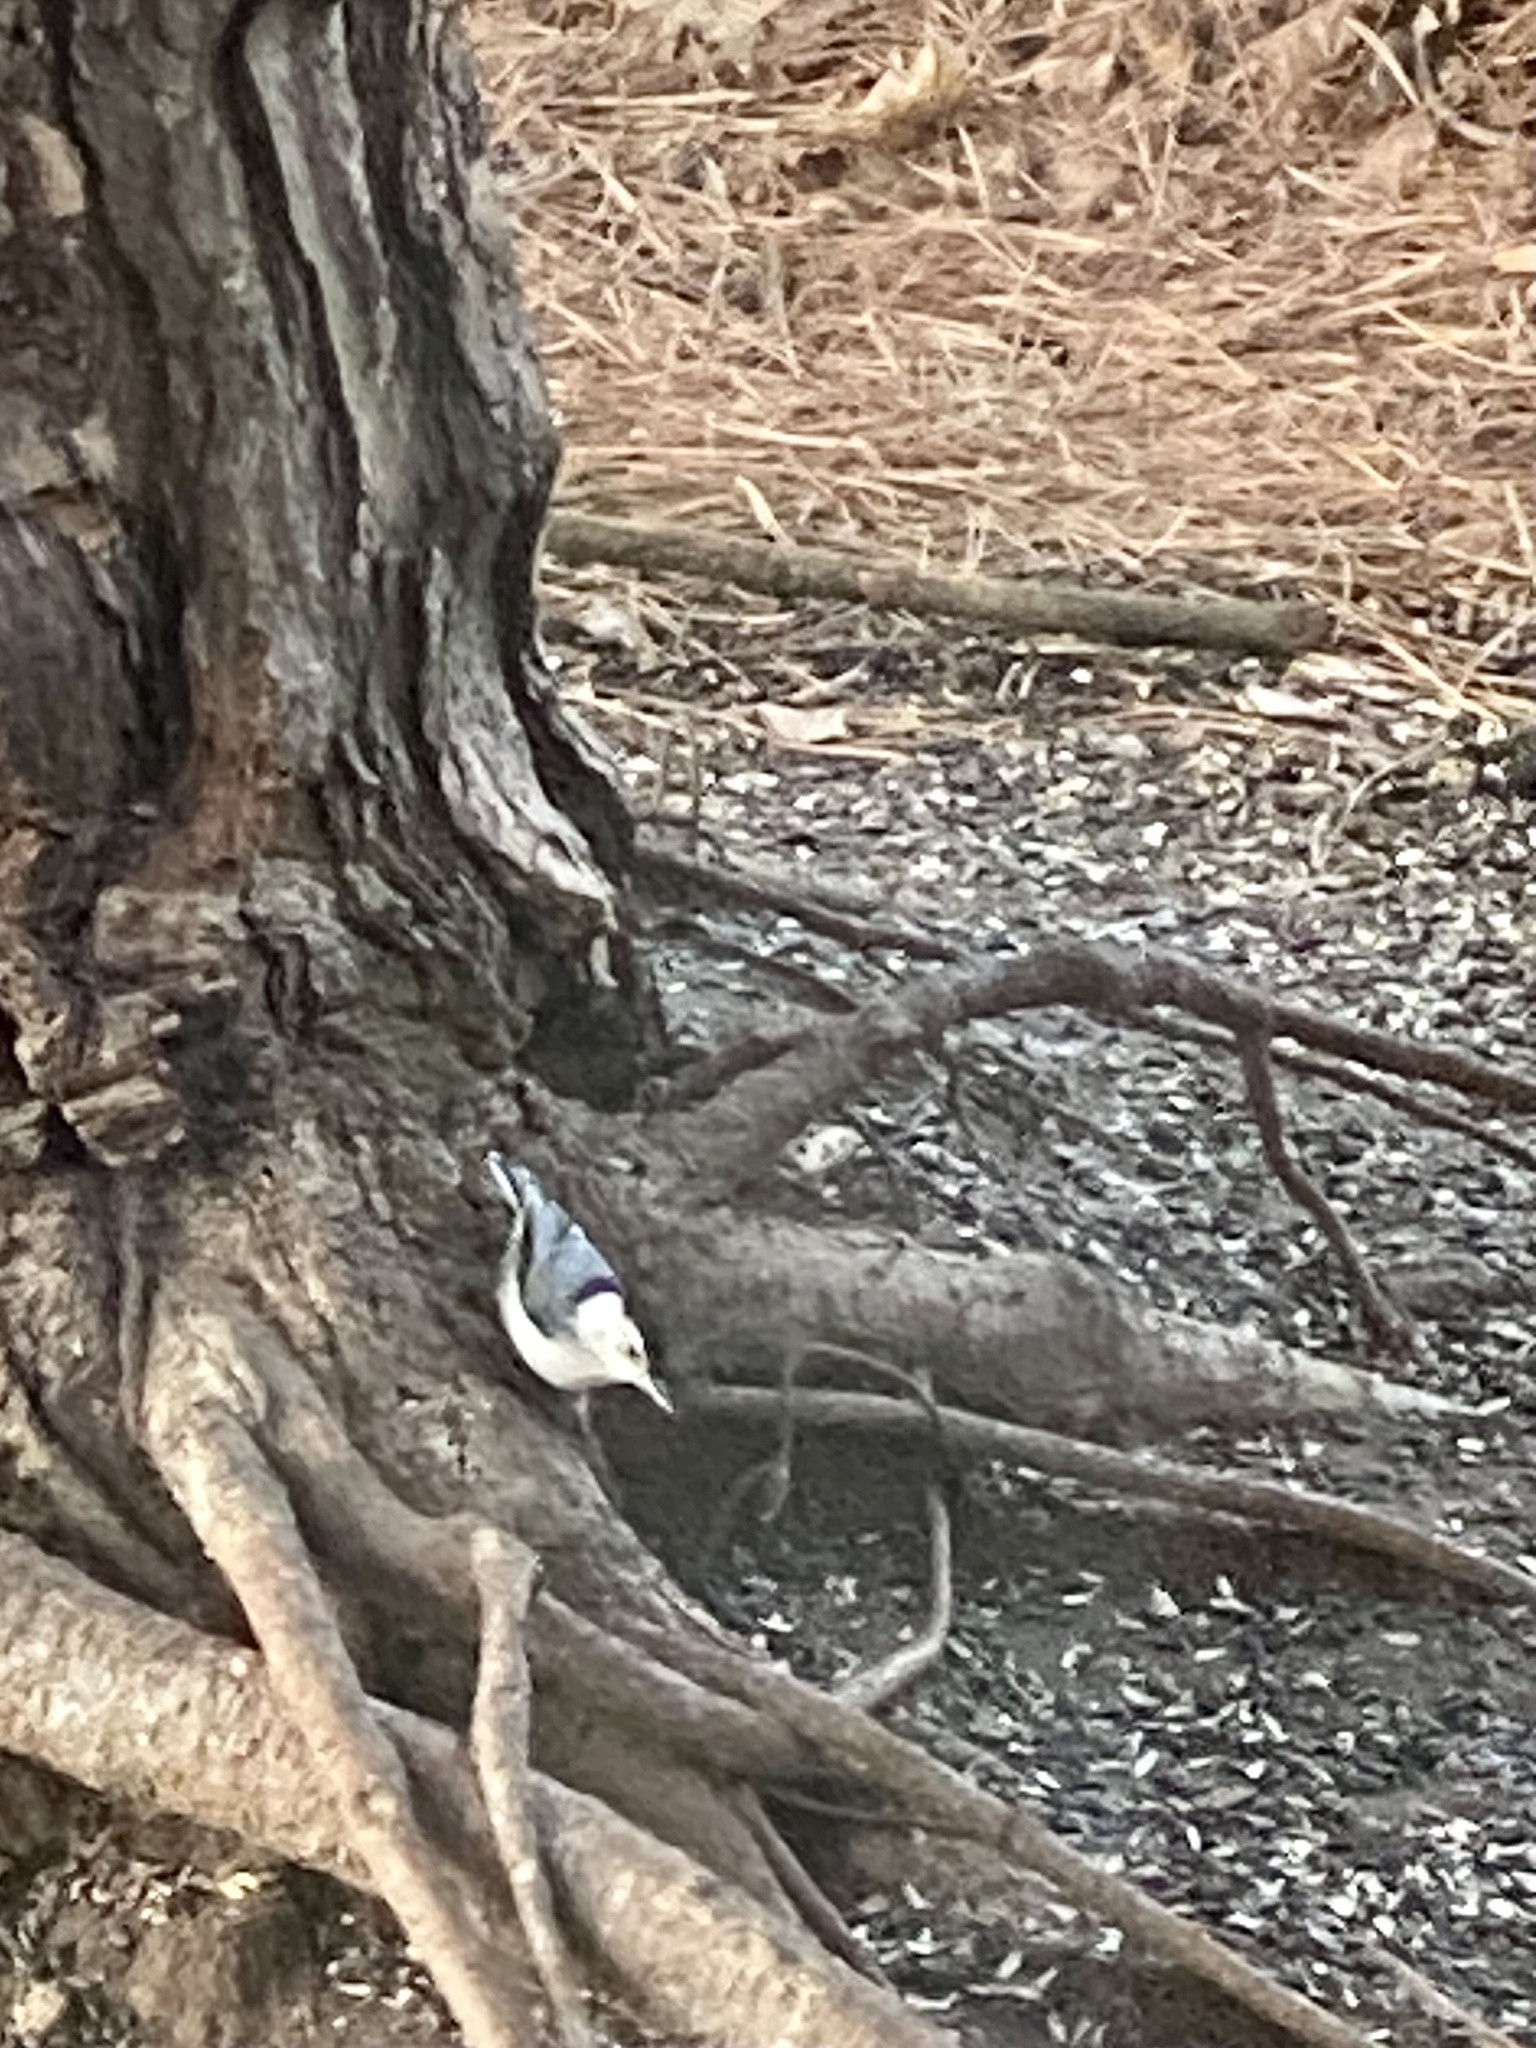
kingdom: Animalia
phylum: Chordata
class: Aves
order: Passeriformes
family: Sittidae
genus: Sitta
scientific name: Sitta carolinensis
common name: White-breasted nuthatch
